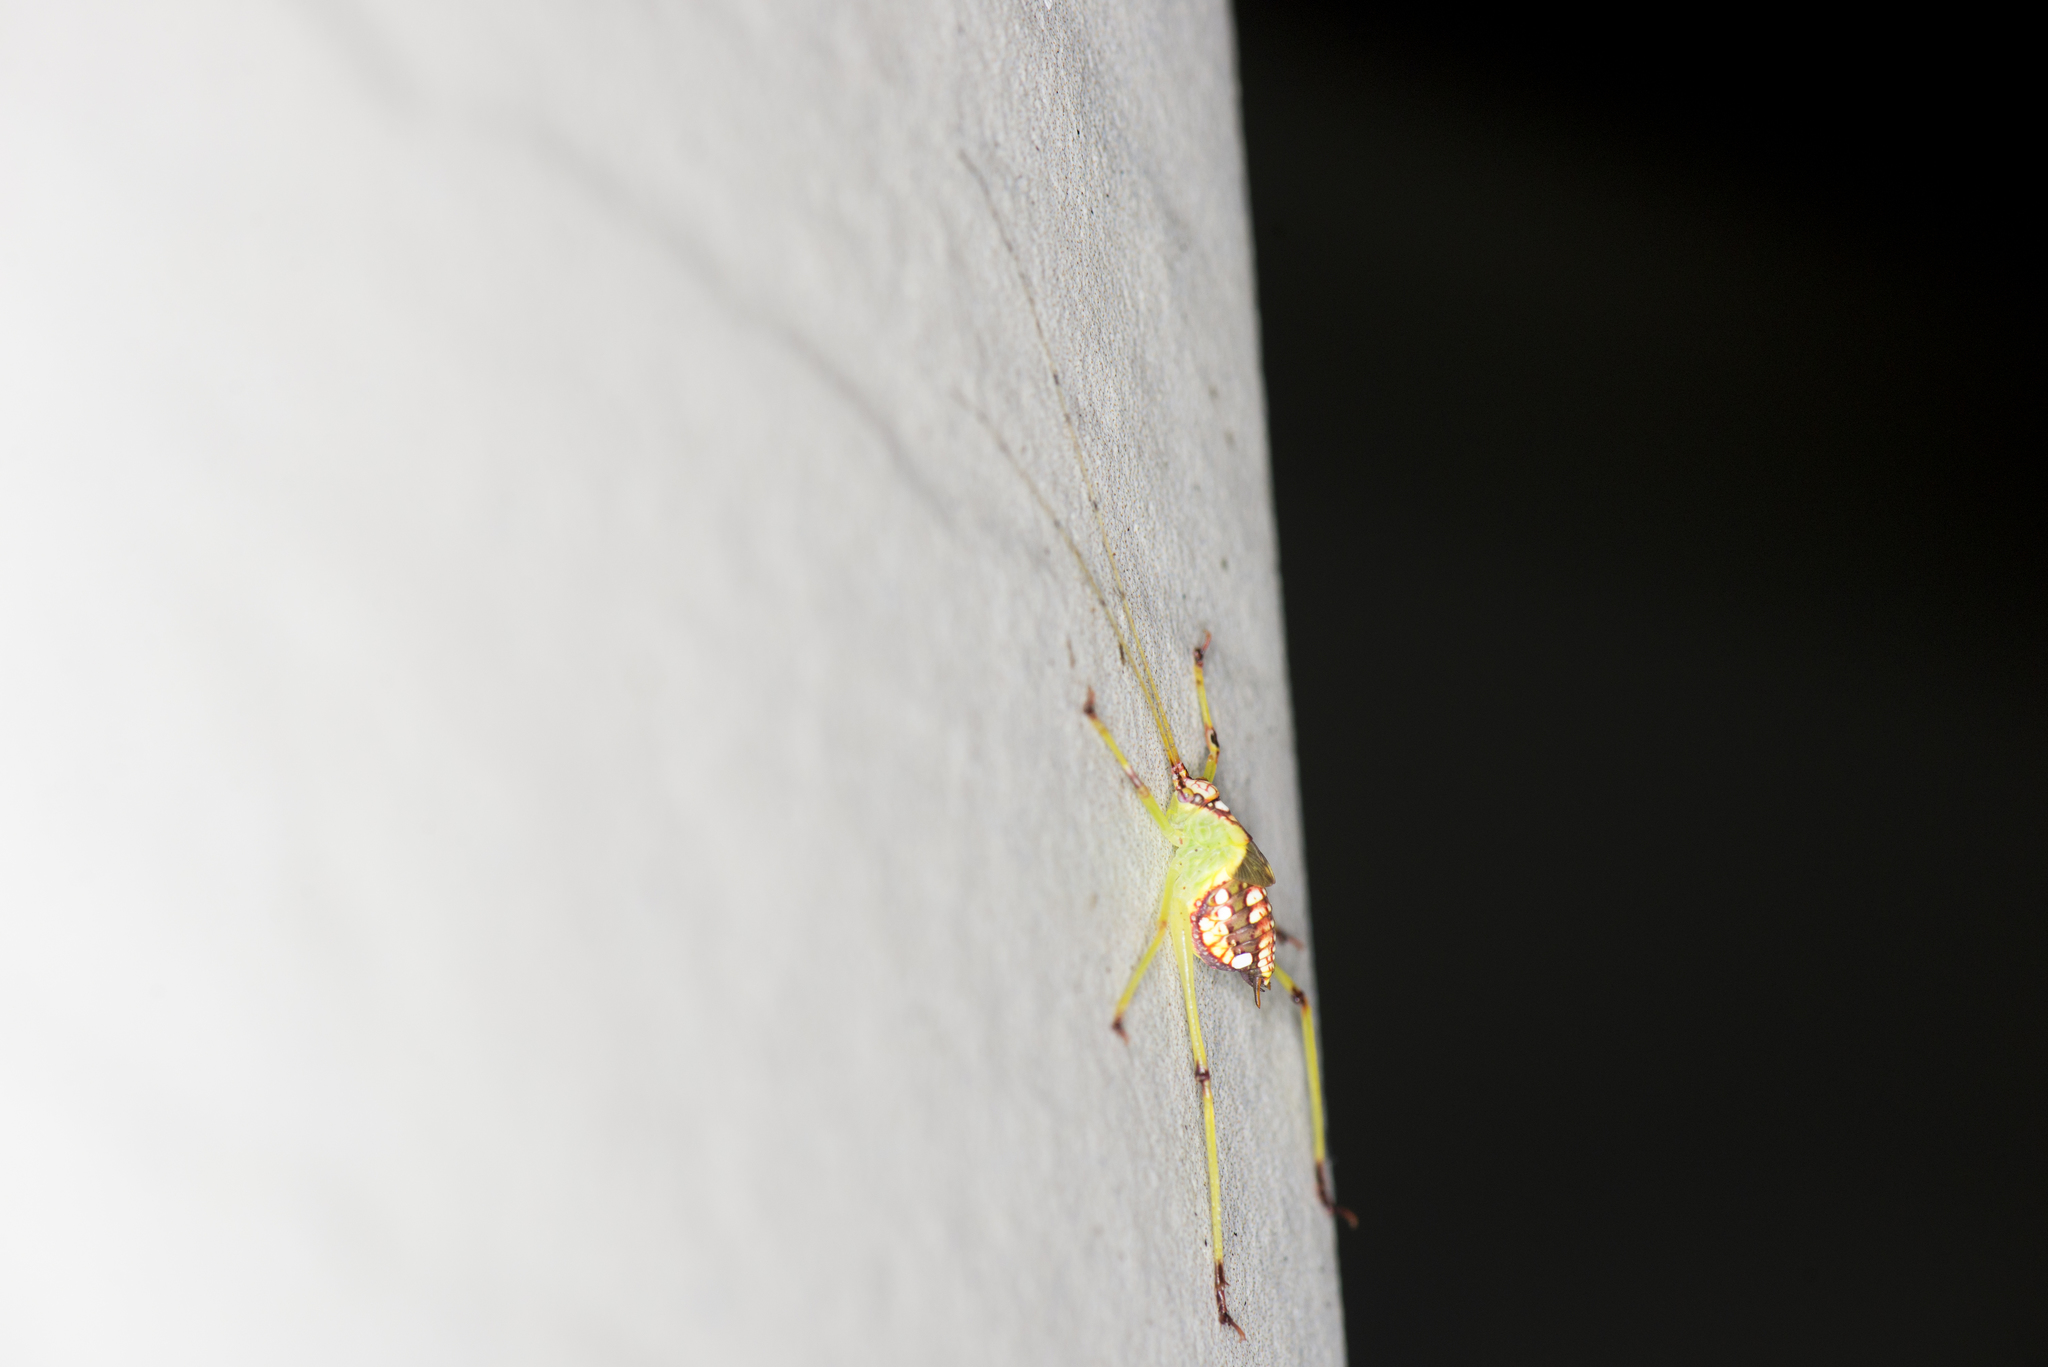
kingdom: Animalia
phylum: Arthropoda
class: Insecta
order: Orthoptera
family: Tettigoniidae
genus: Deflorita
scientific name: Deflorita apicalis
